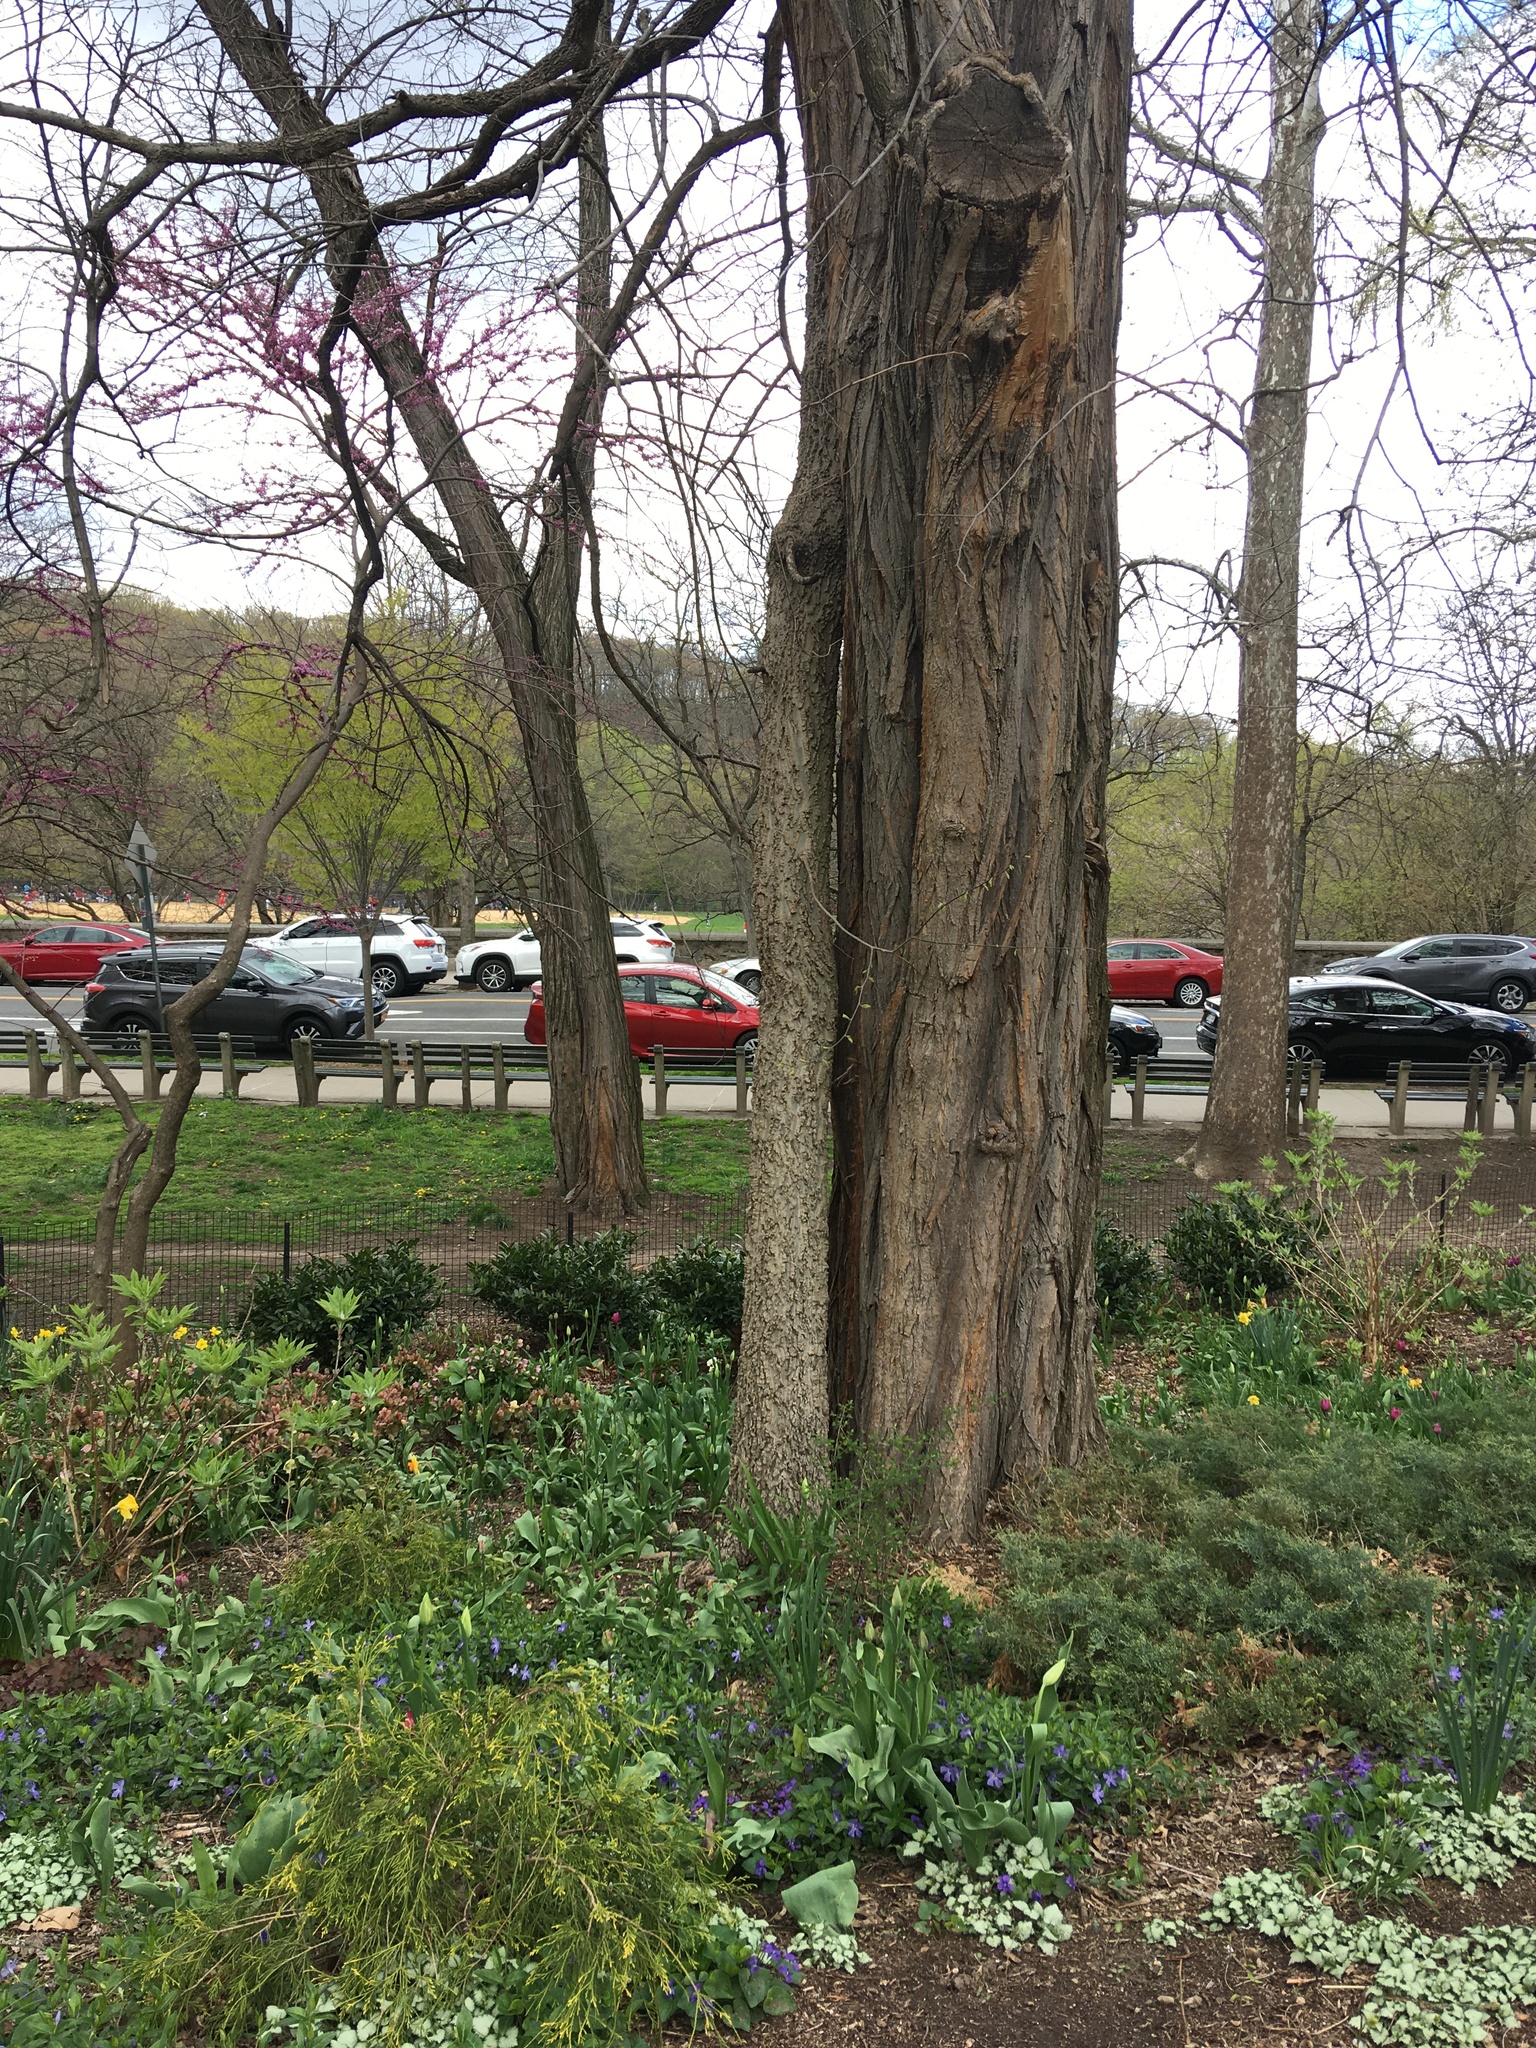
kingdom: Plantae
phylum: Tracheophyta
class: Magnoliopsida
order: Rosales
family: Cannabaceae
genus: Celtis
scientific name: Celtis occidentalis
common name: Common hackberry
